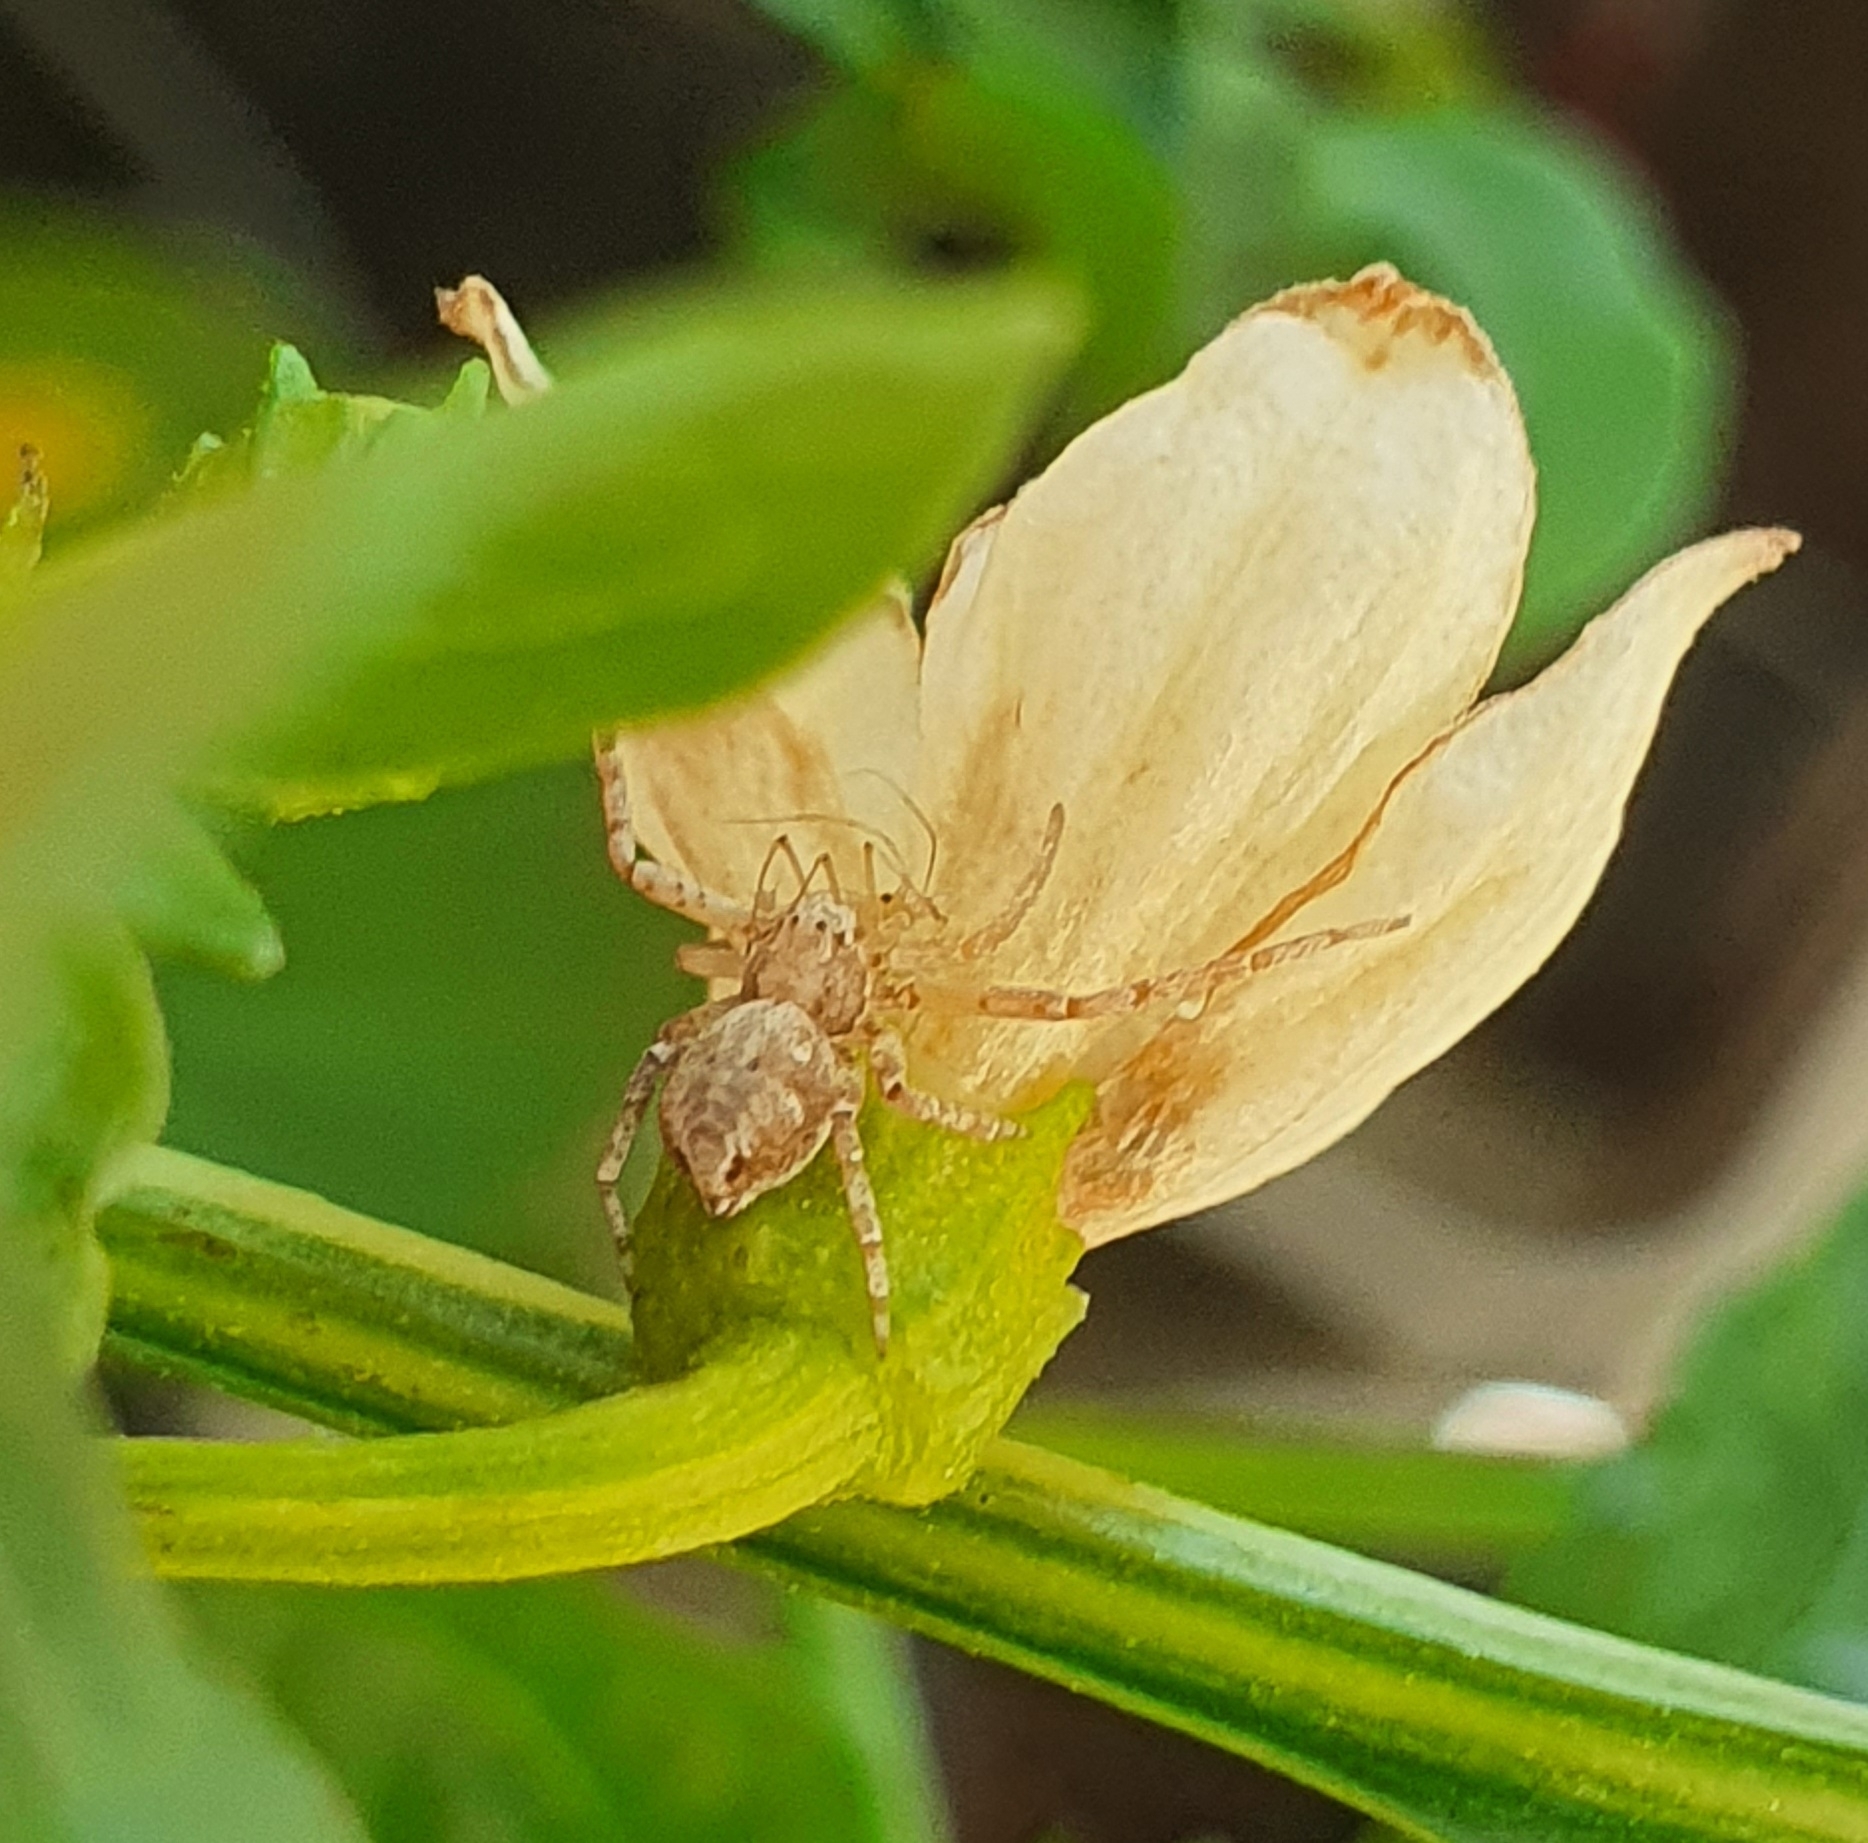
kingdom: Animalia
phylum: Arthropoda
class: Arachnida
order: Araneae
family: Philodromidae
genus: Philodromus
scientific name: Philodromus
